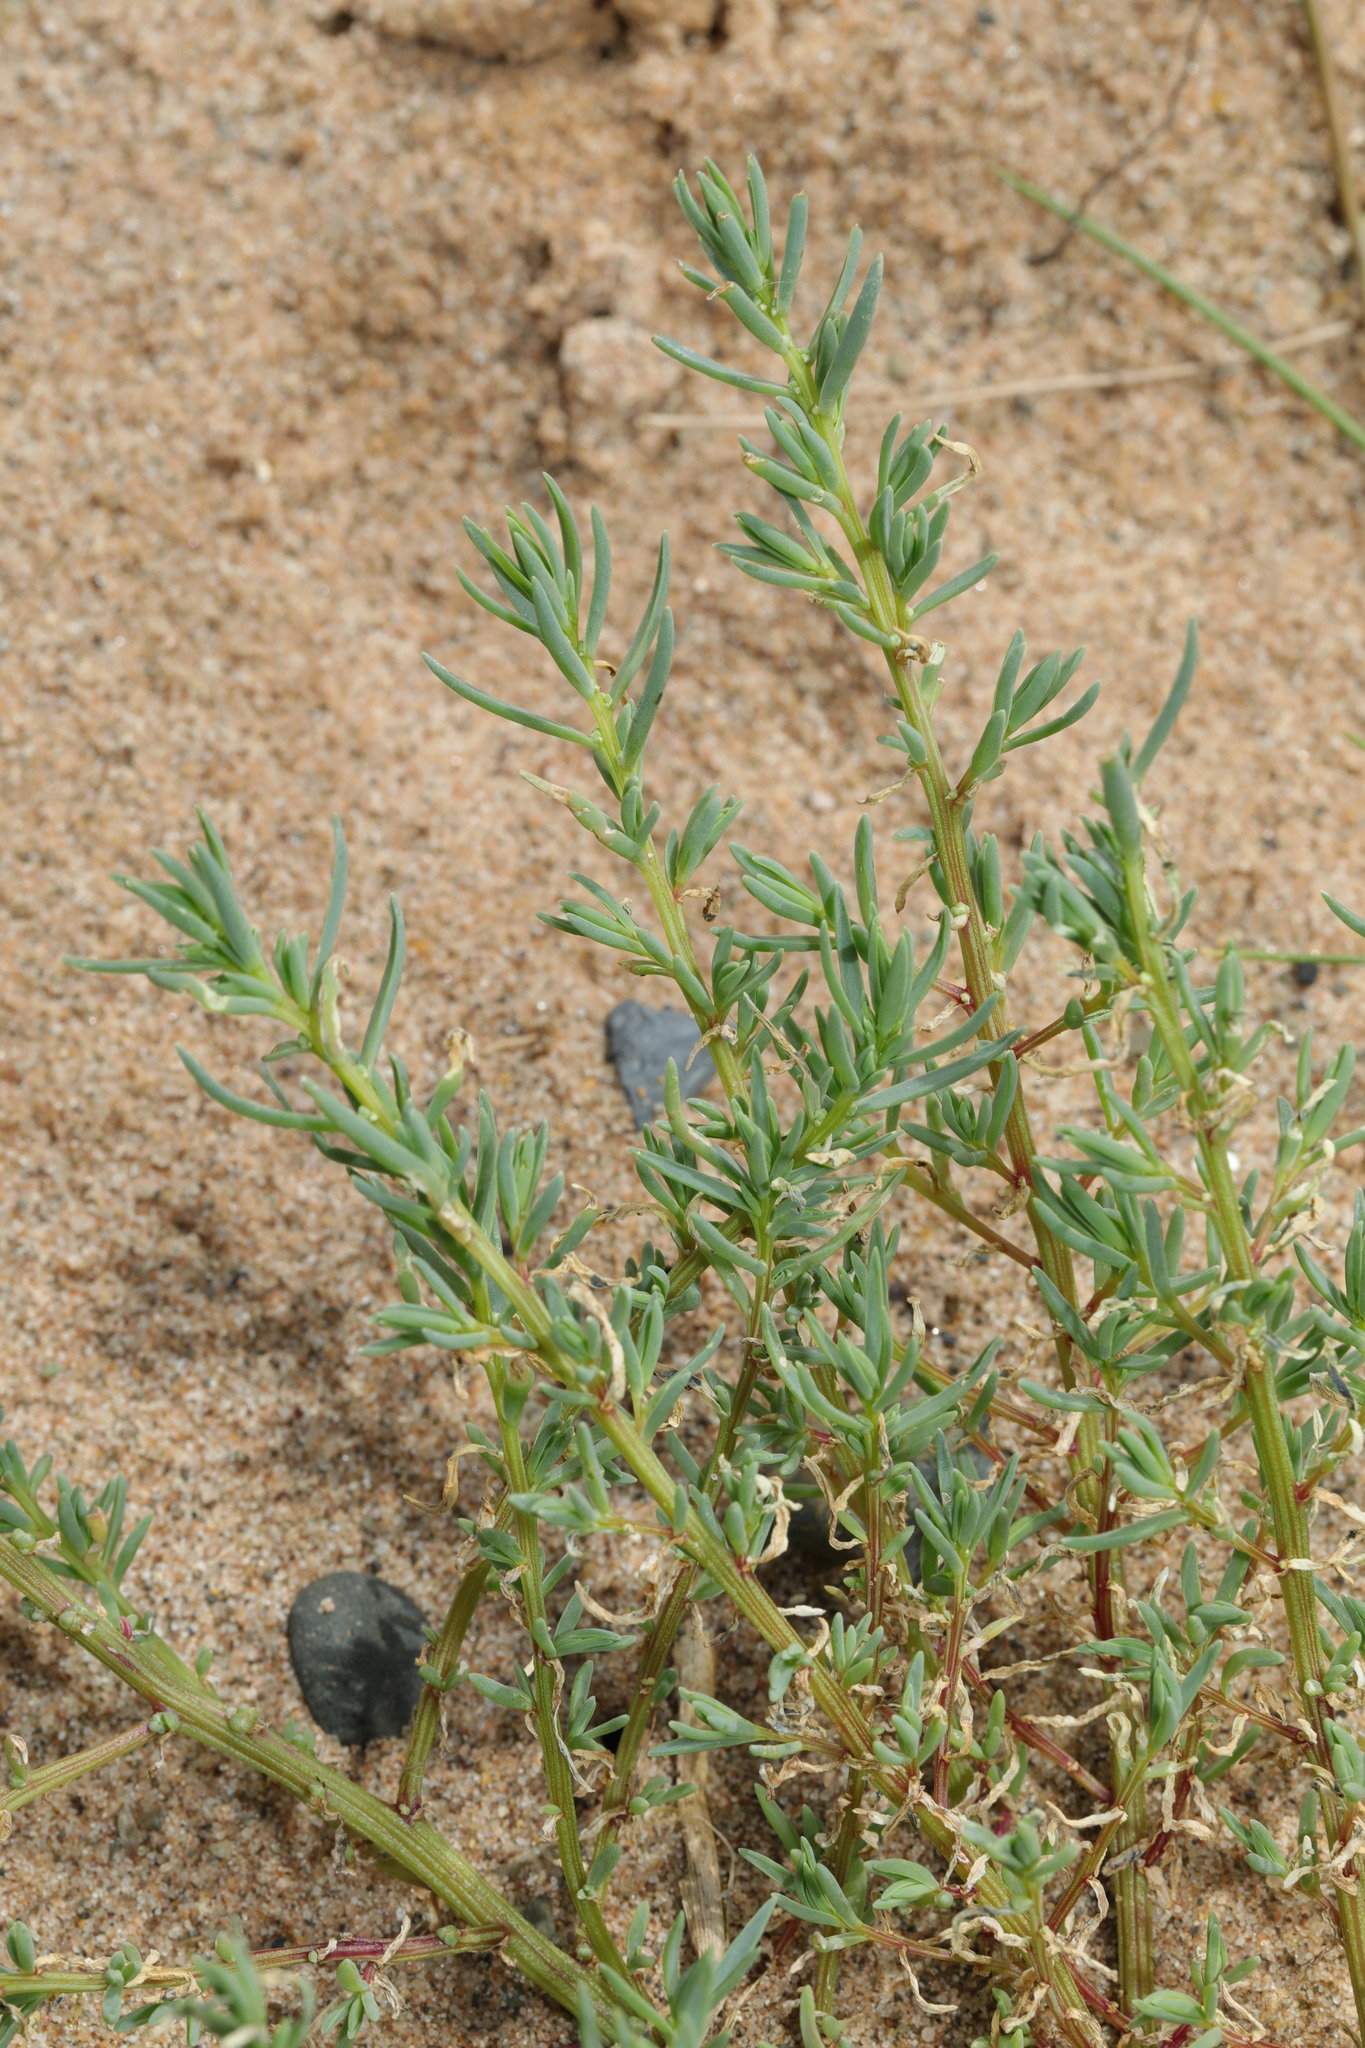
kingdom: Plantae
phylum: Tracheophyta
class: Magnoliopsida
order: Caryophyllales
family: Amaranthaceae
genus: Suaeda
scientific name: Suaeda maritima
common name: Annual sea-blite
